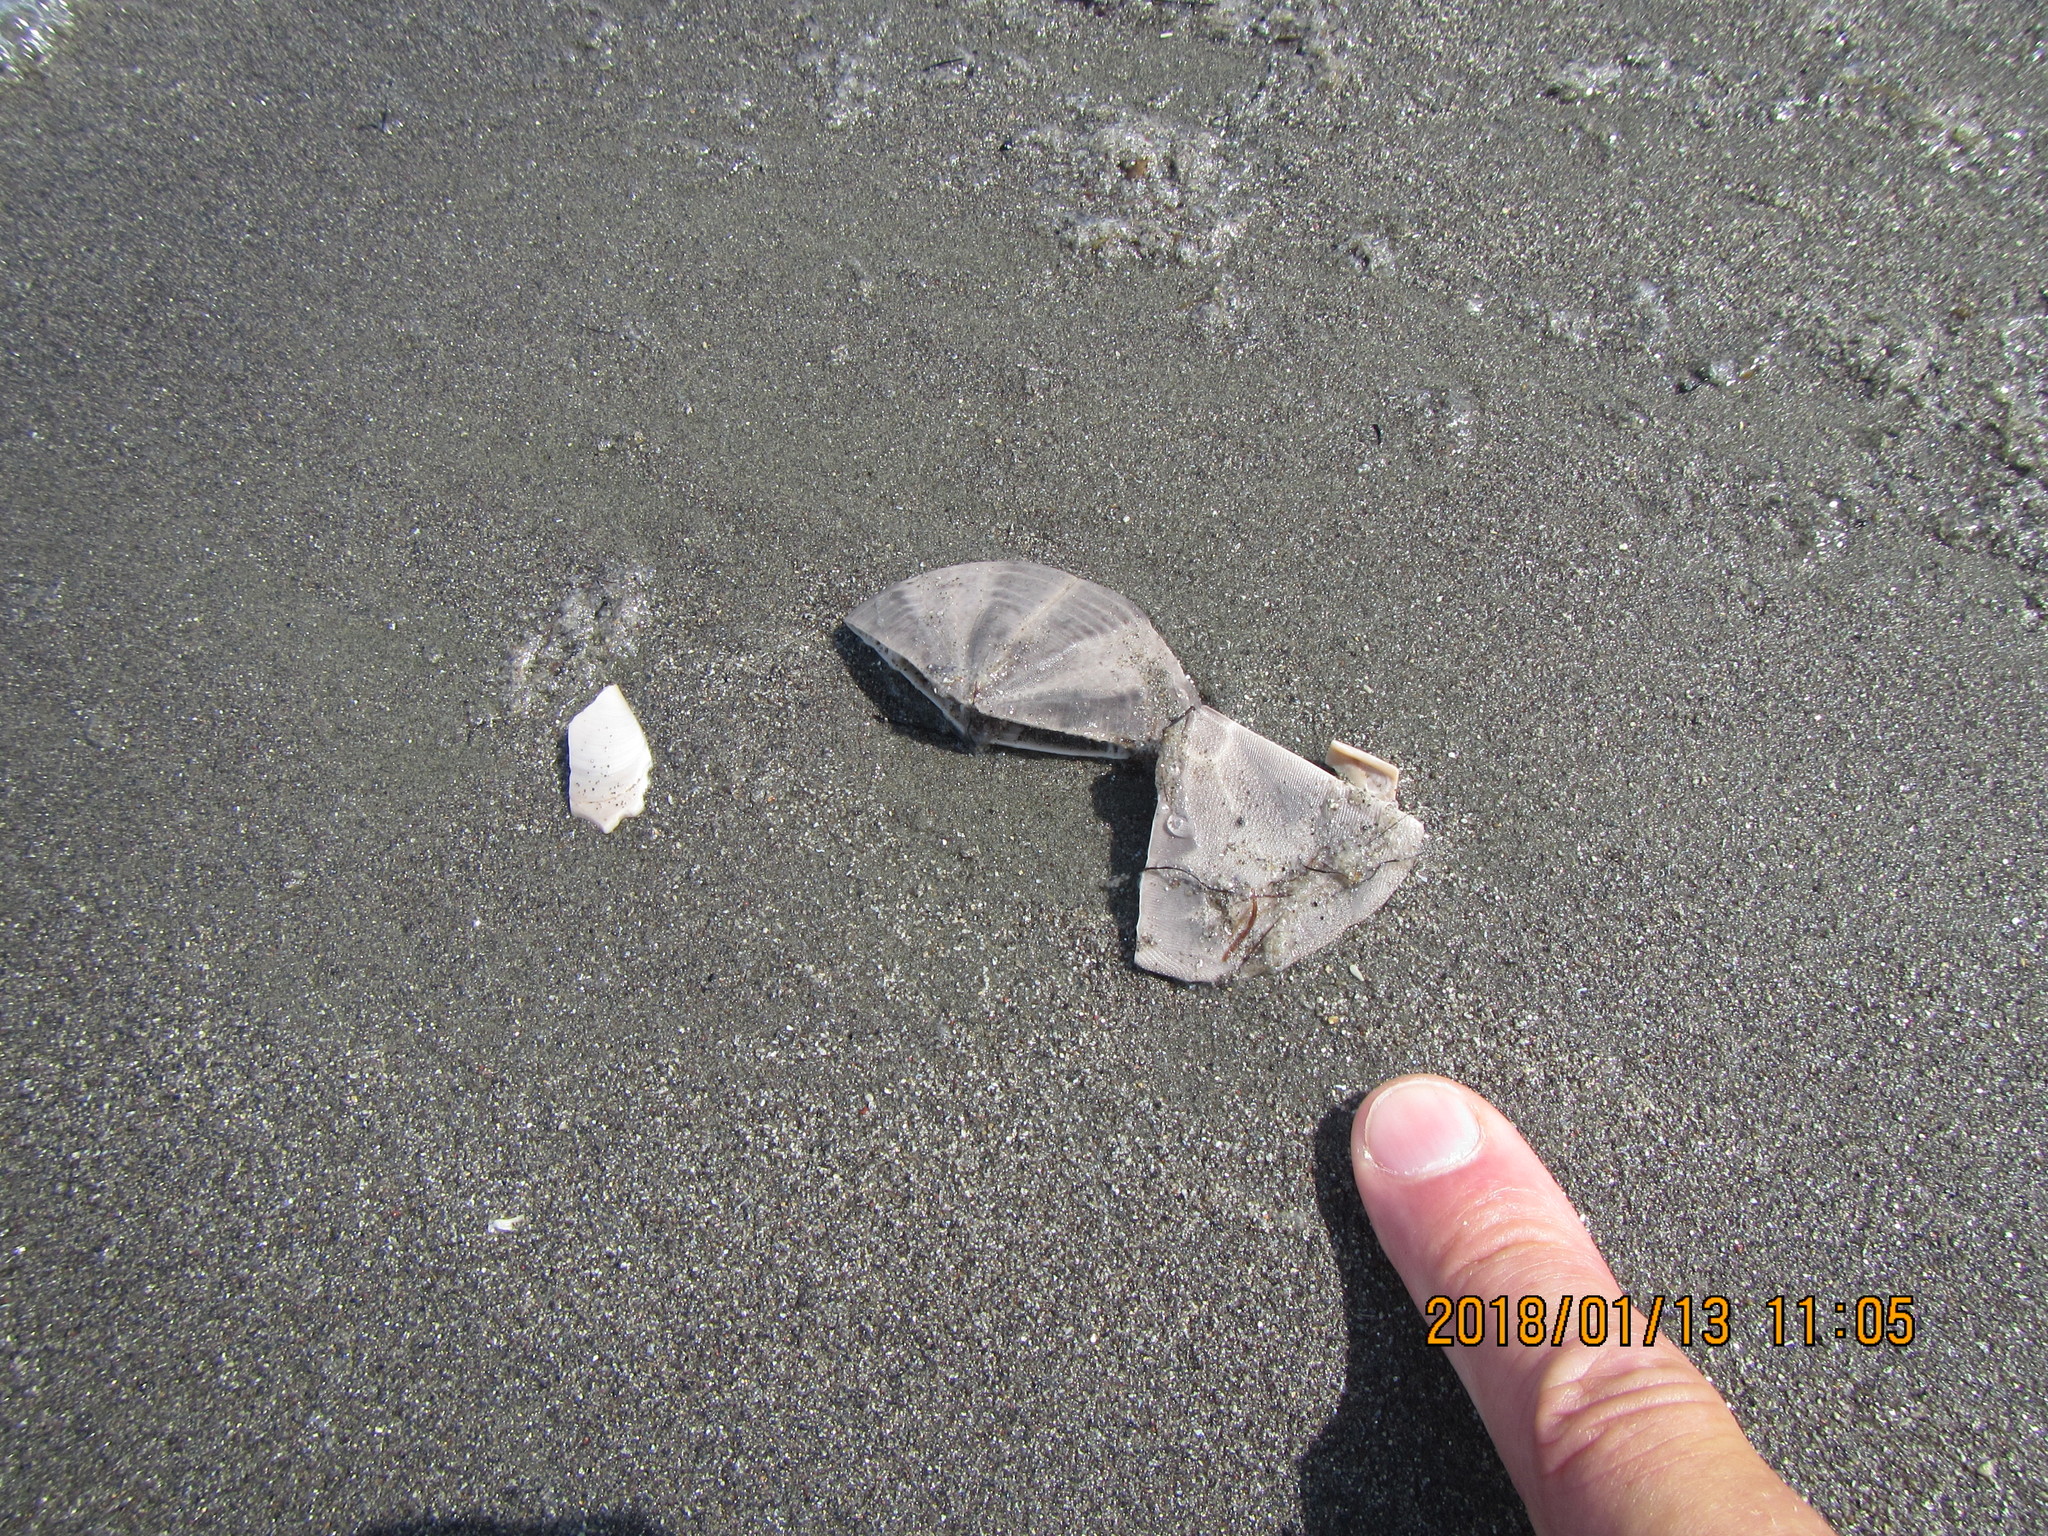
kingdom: Animalia
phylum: Echinodermata
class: Echinoidea
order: Clypeasteroida
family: Clypeasteridae
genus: Fellaster
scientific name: Fellaster zelandiae
